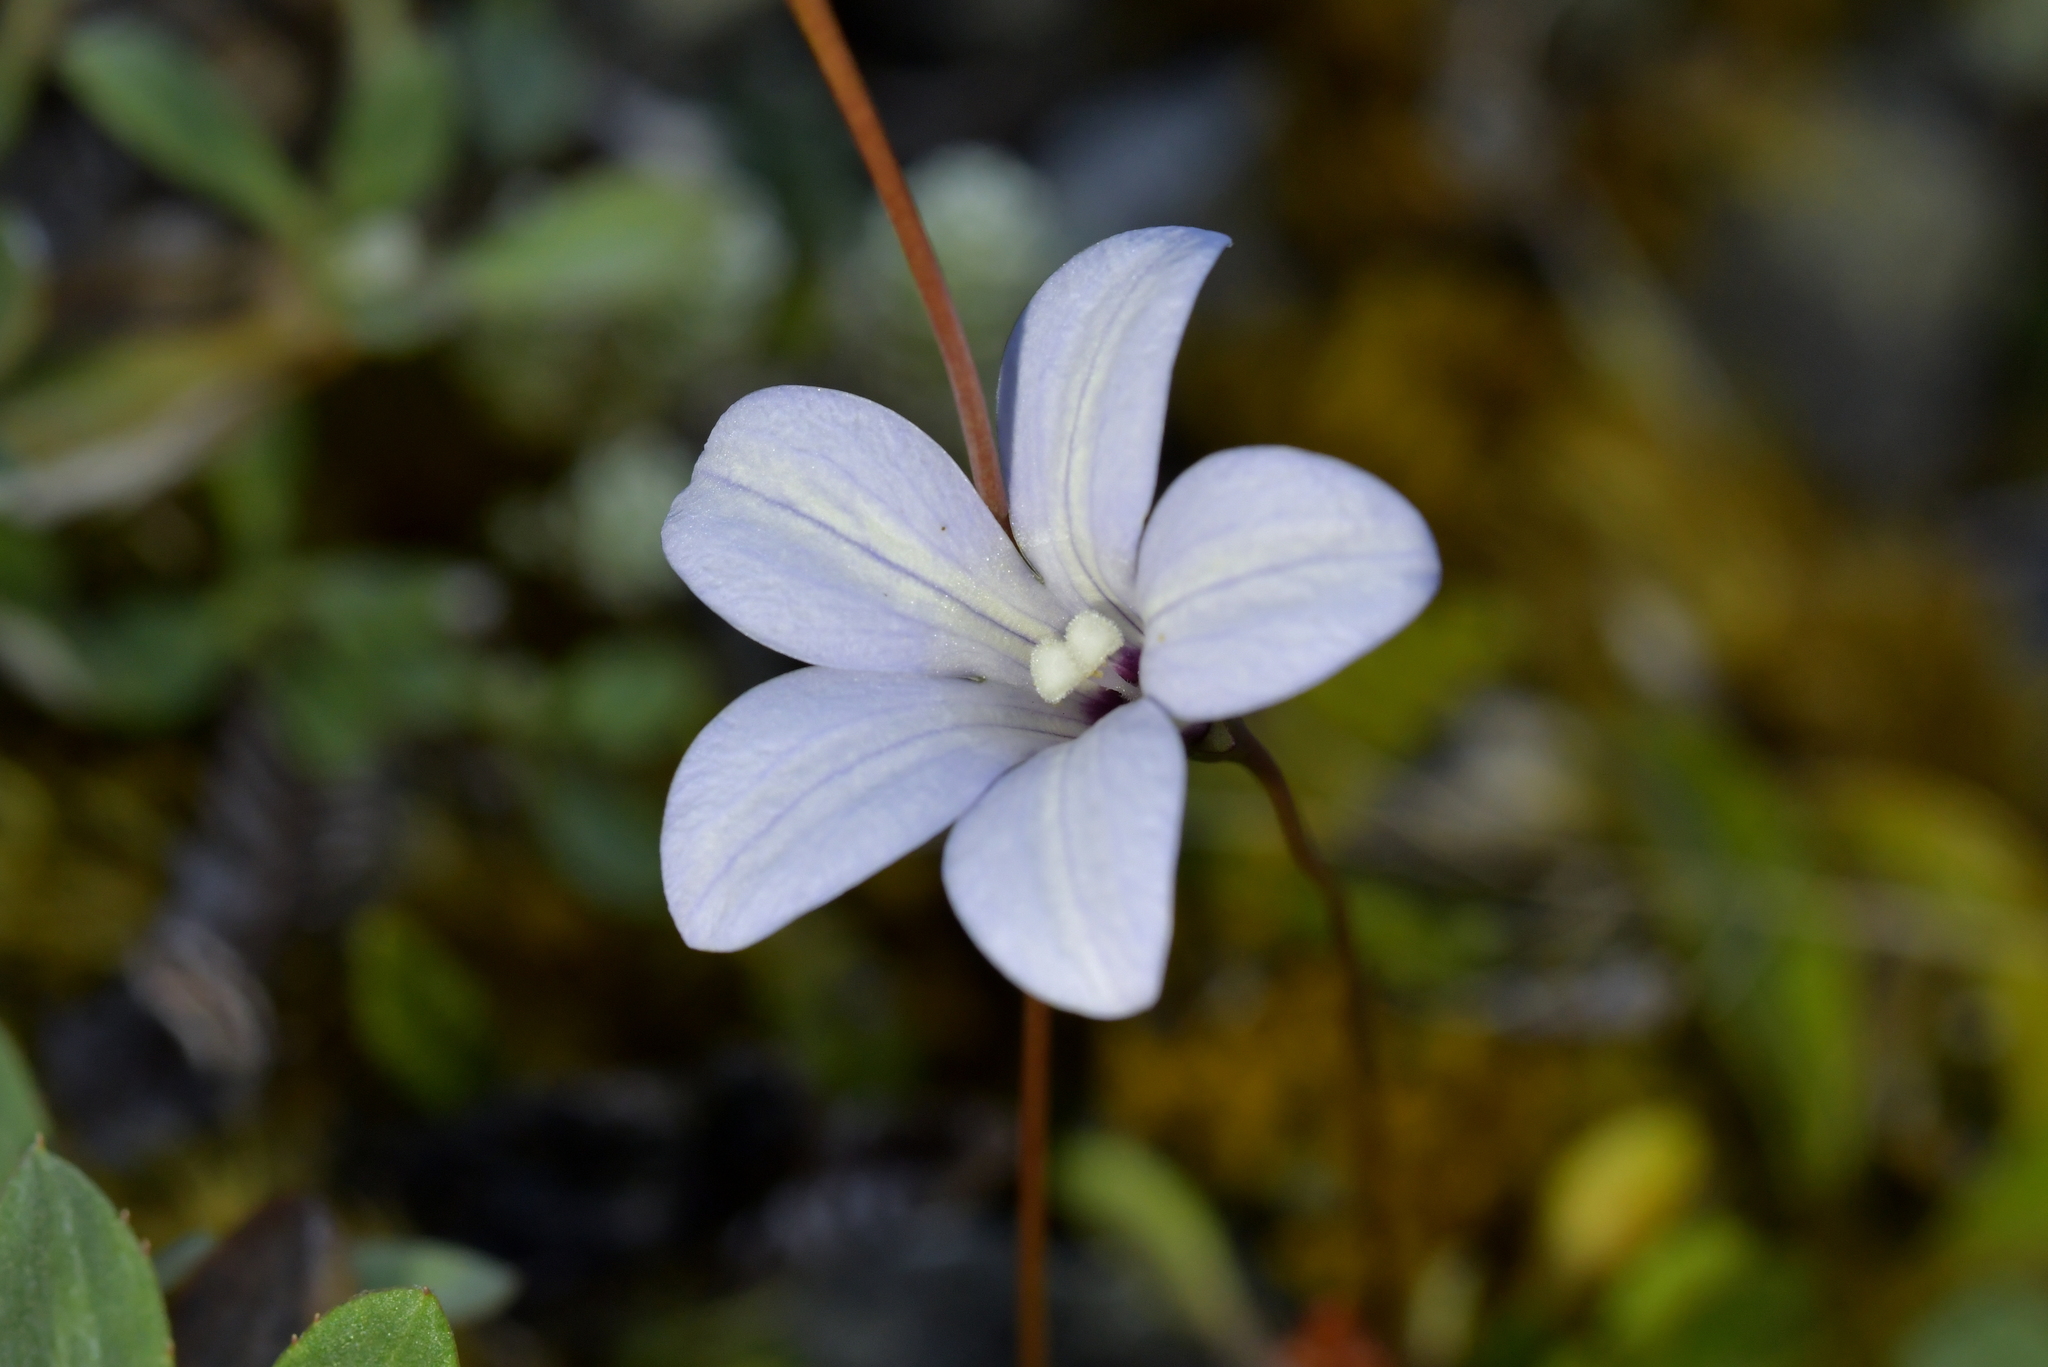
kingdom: Plantae
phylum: Tracheophyta
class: Magnoliopsida
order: Asterales
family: Campanulaceae
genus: Wahlenbergia
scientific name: Wahlenbergia albomarginata
